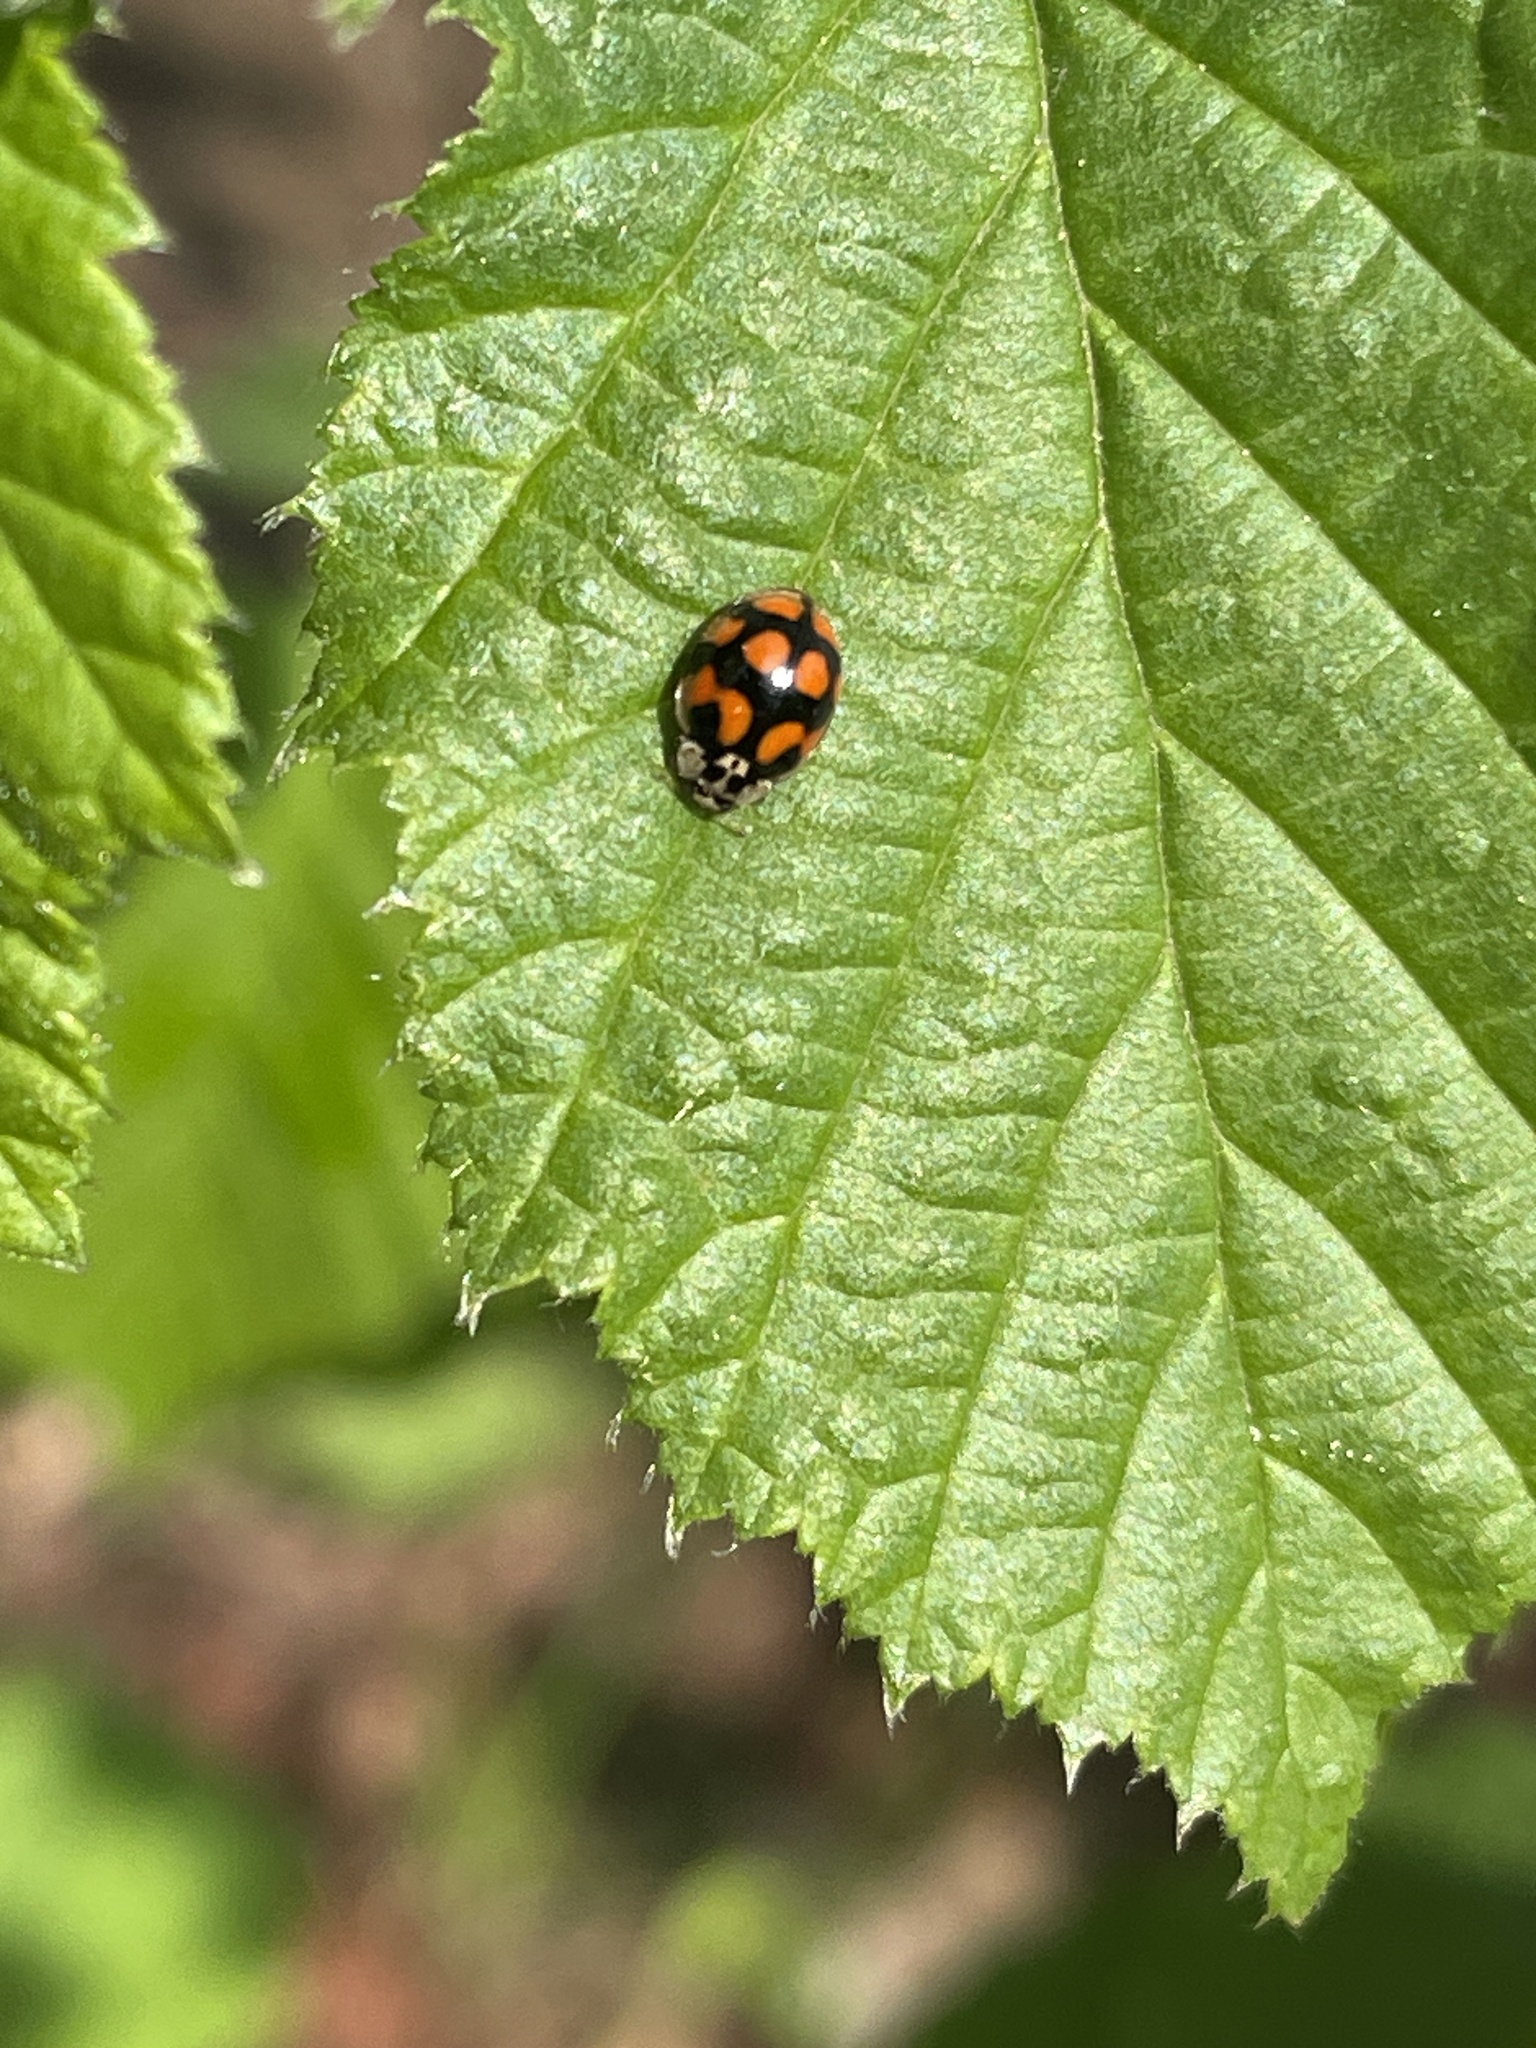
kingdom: Animalia
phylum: Arthropoda
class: Insecta
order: Coleoptera
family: Coccinellidae
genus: Adalia
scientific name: Adalia decempunctata
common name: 10-spot ladybird
